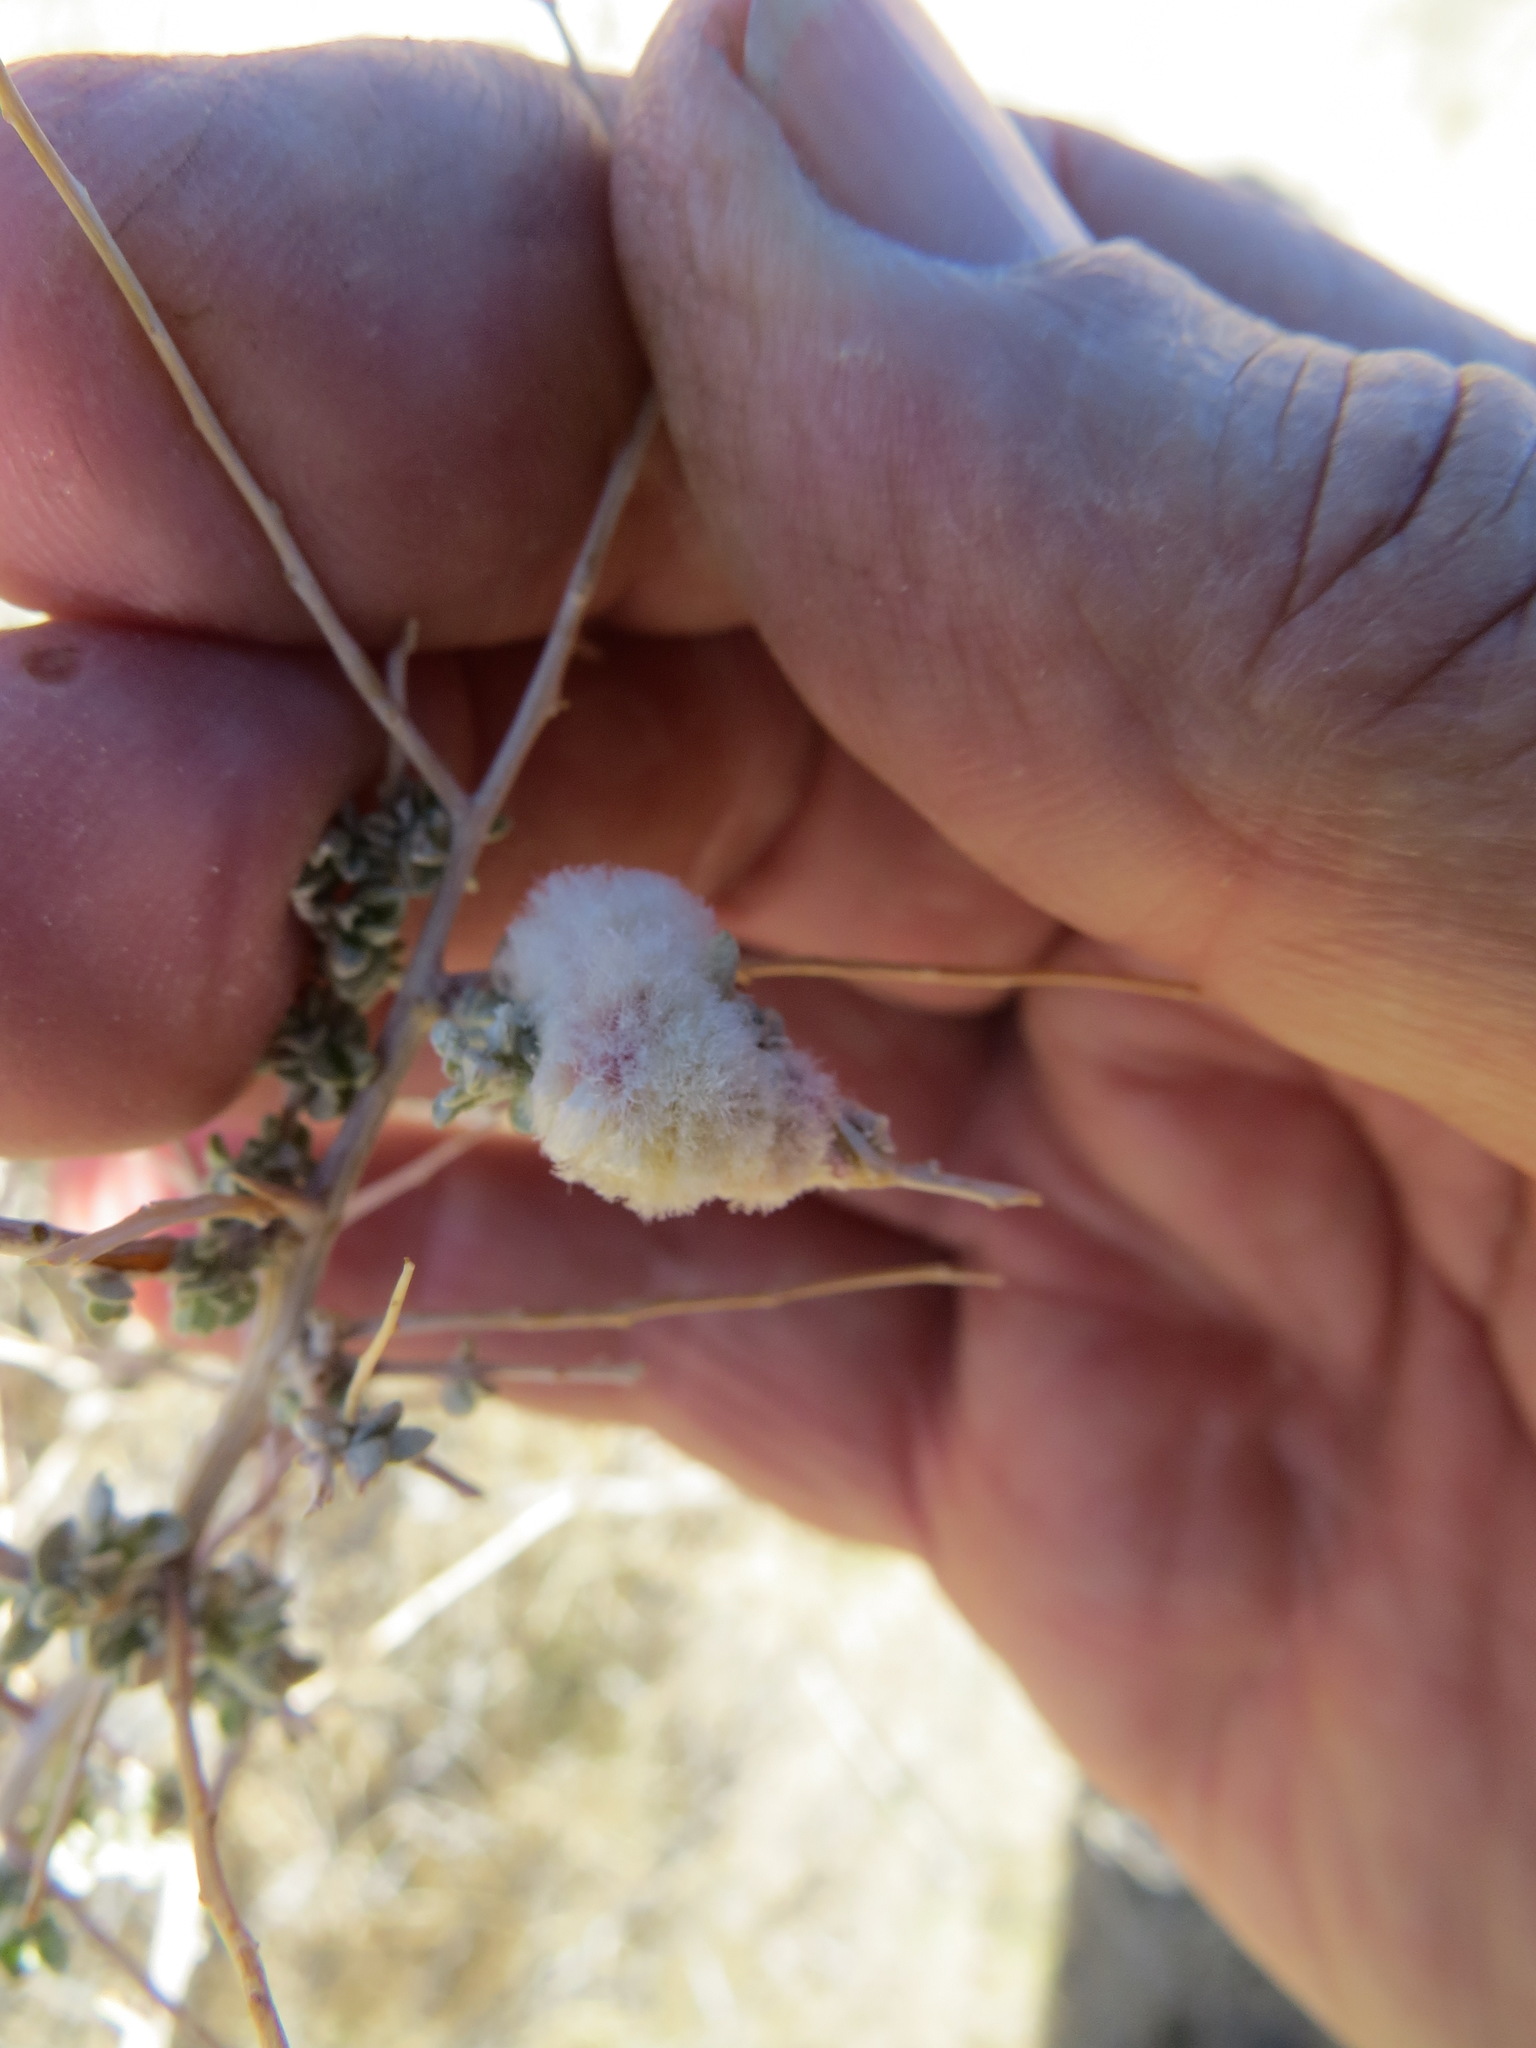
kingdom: Animalia
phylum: Arthropoda
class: Insecta
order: Diptera
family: Cecidomyiidae
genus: Asphondylia
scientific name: Asphondylia floccosa
